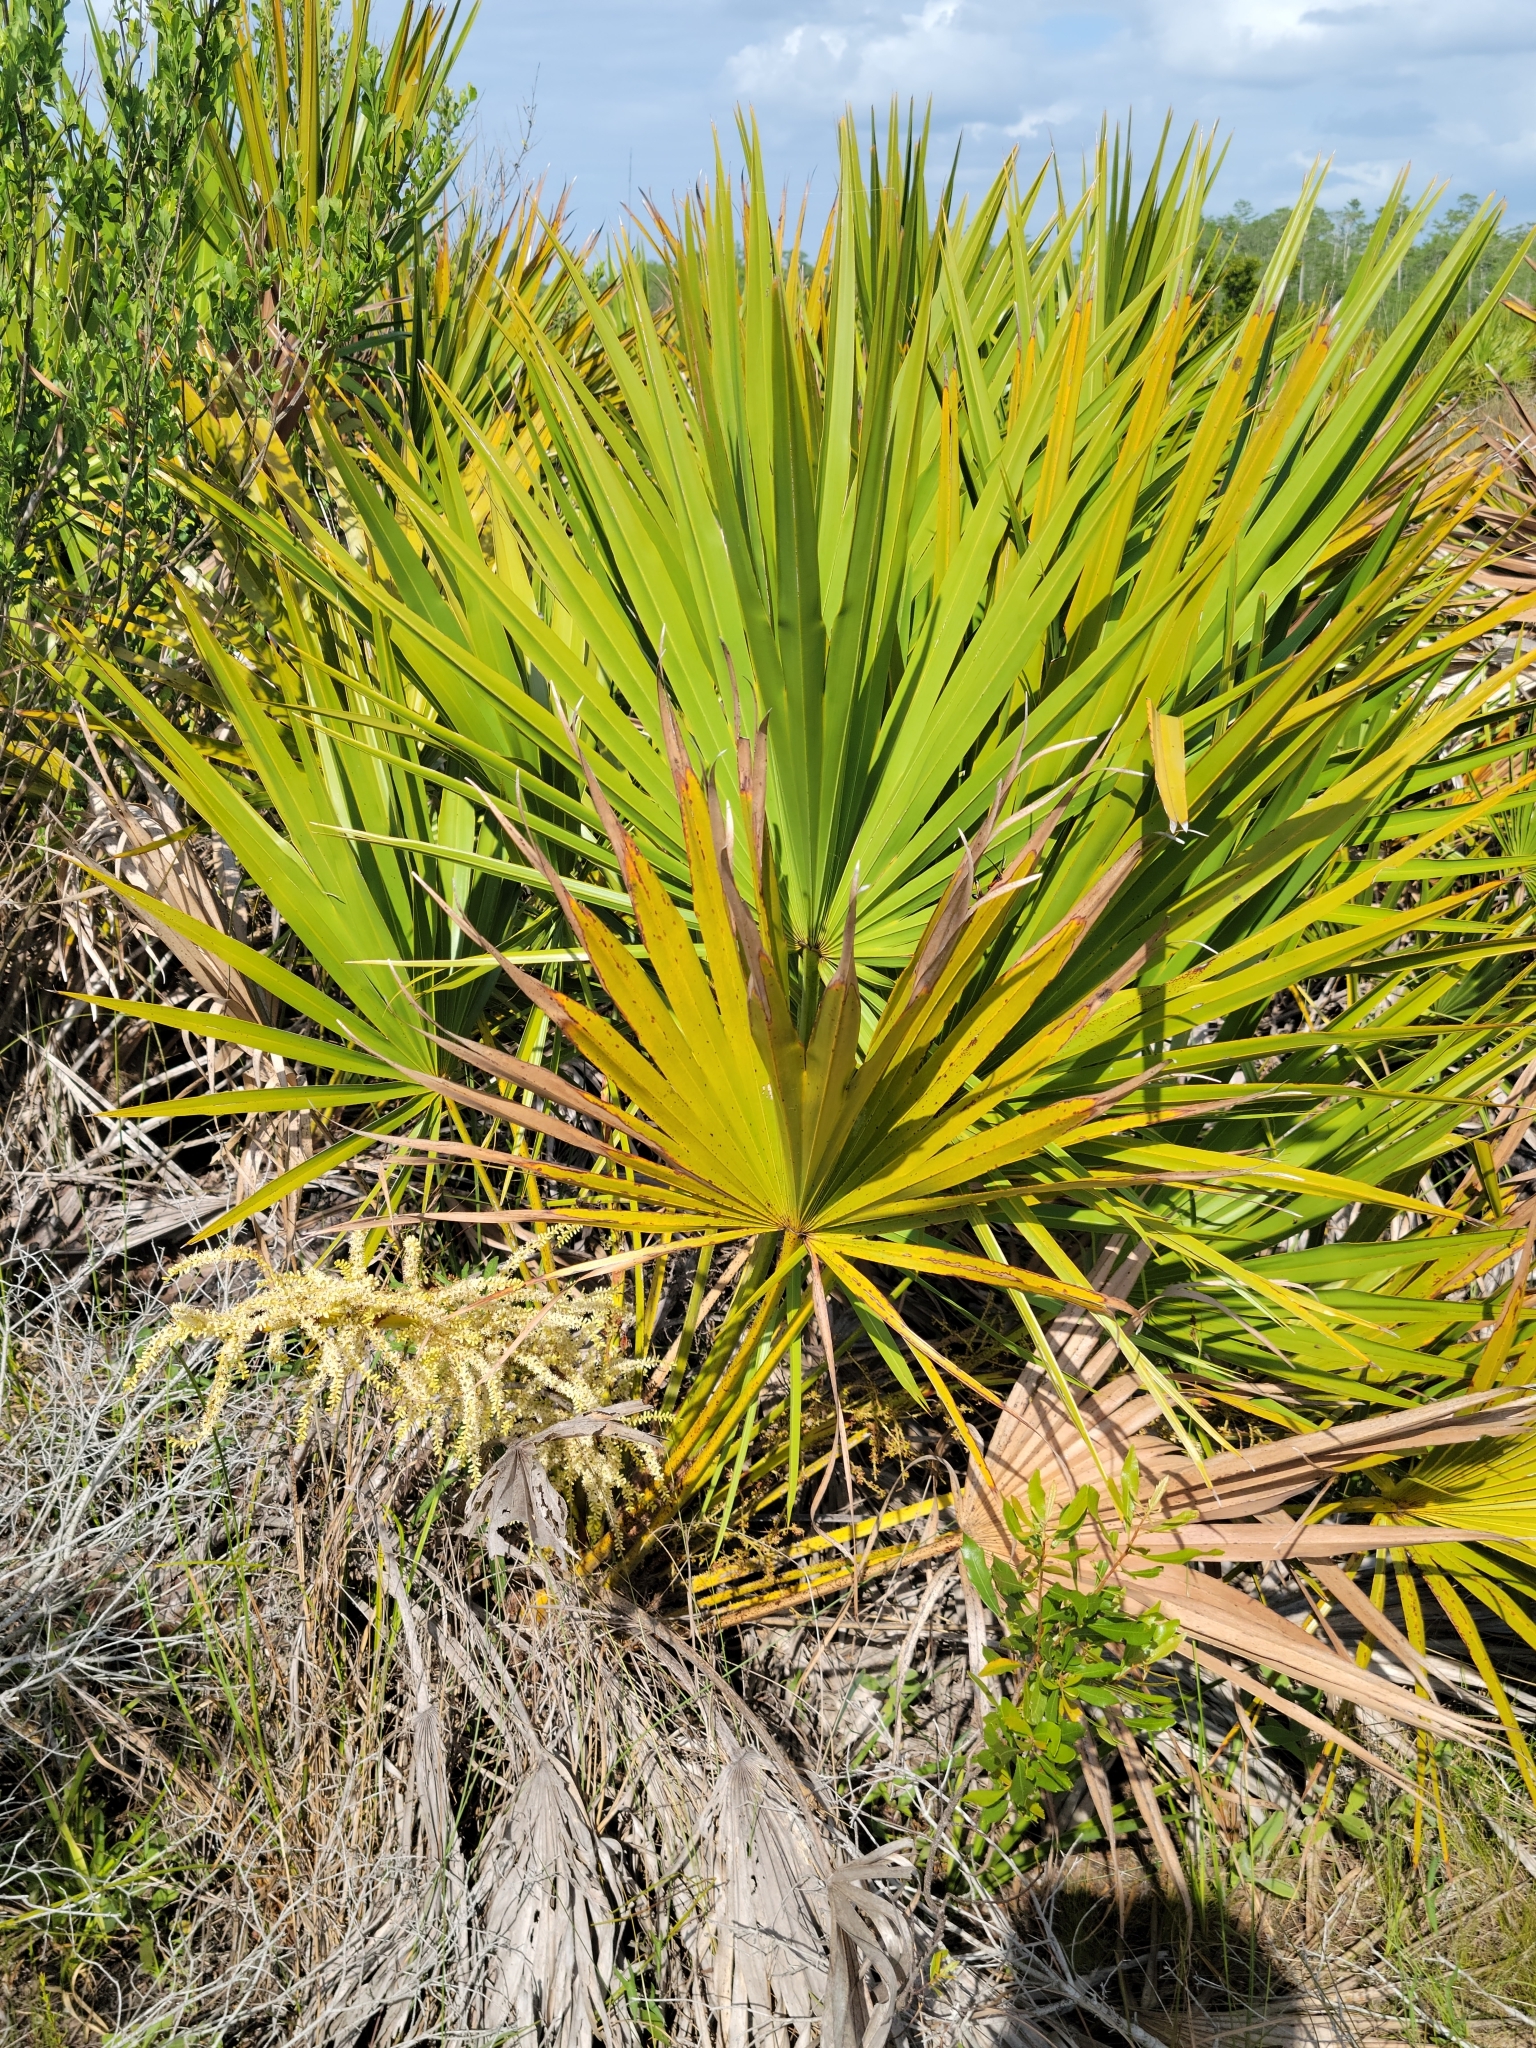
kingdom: Plantae
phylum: Tracheophyta
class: Liliopsida
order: Arecales
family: Arecaceae
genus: Serenoa
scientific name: Serenoa repens
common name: Saw-palmetto
